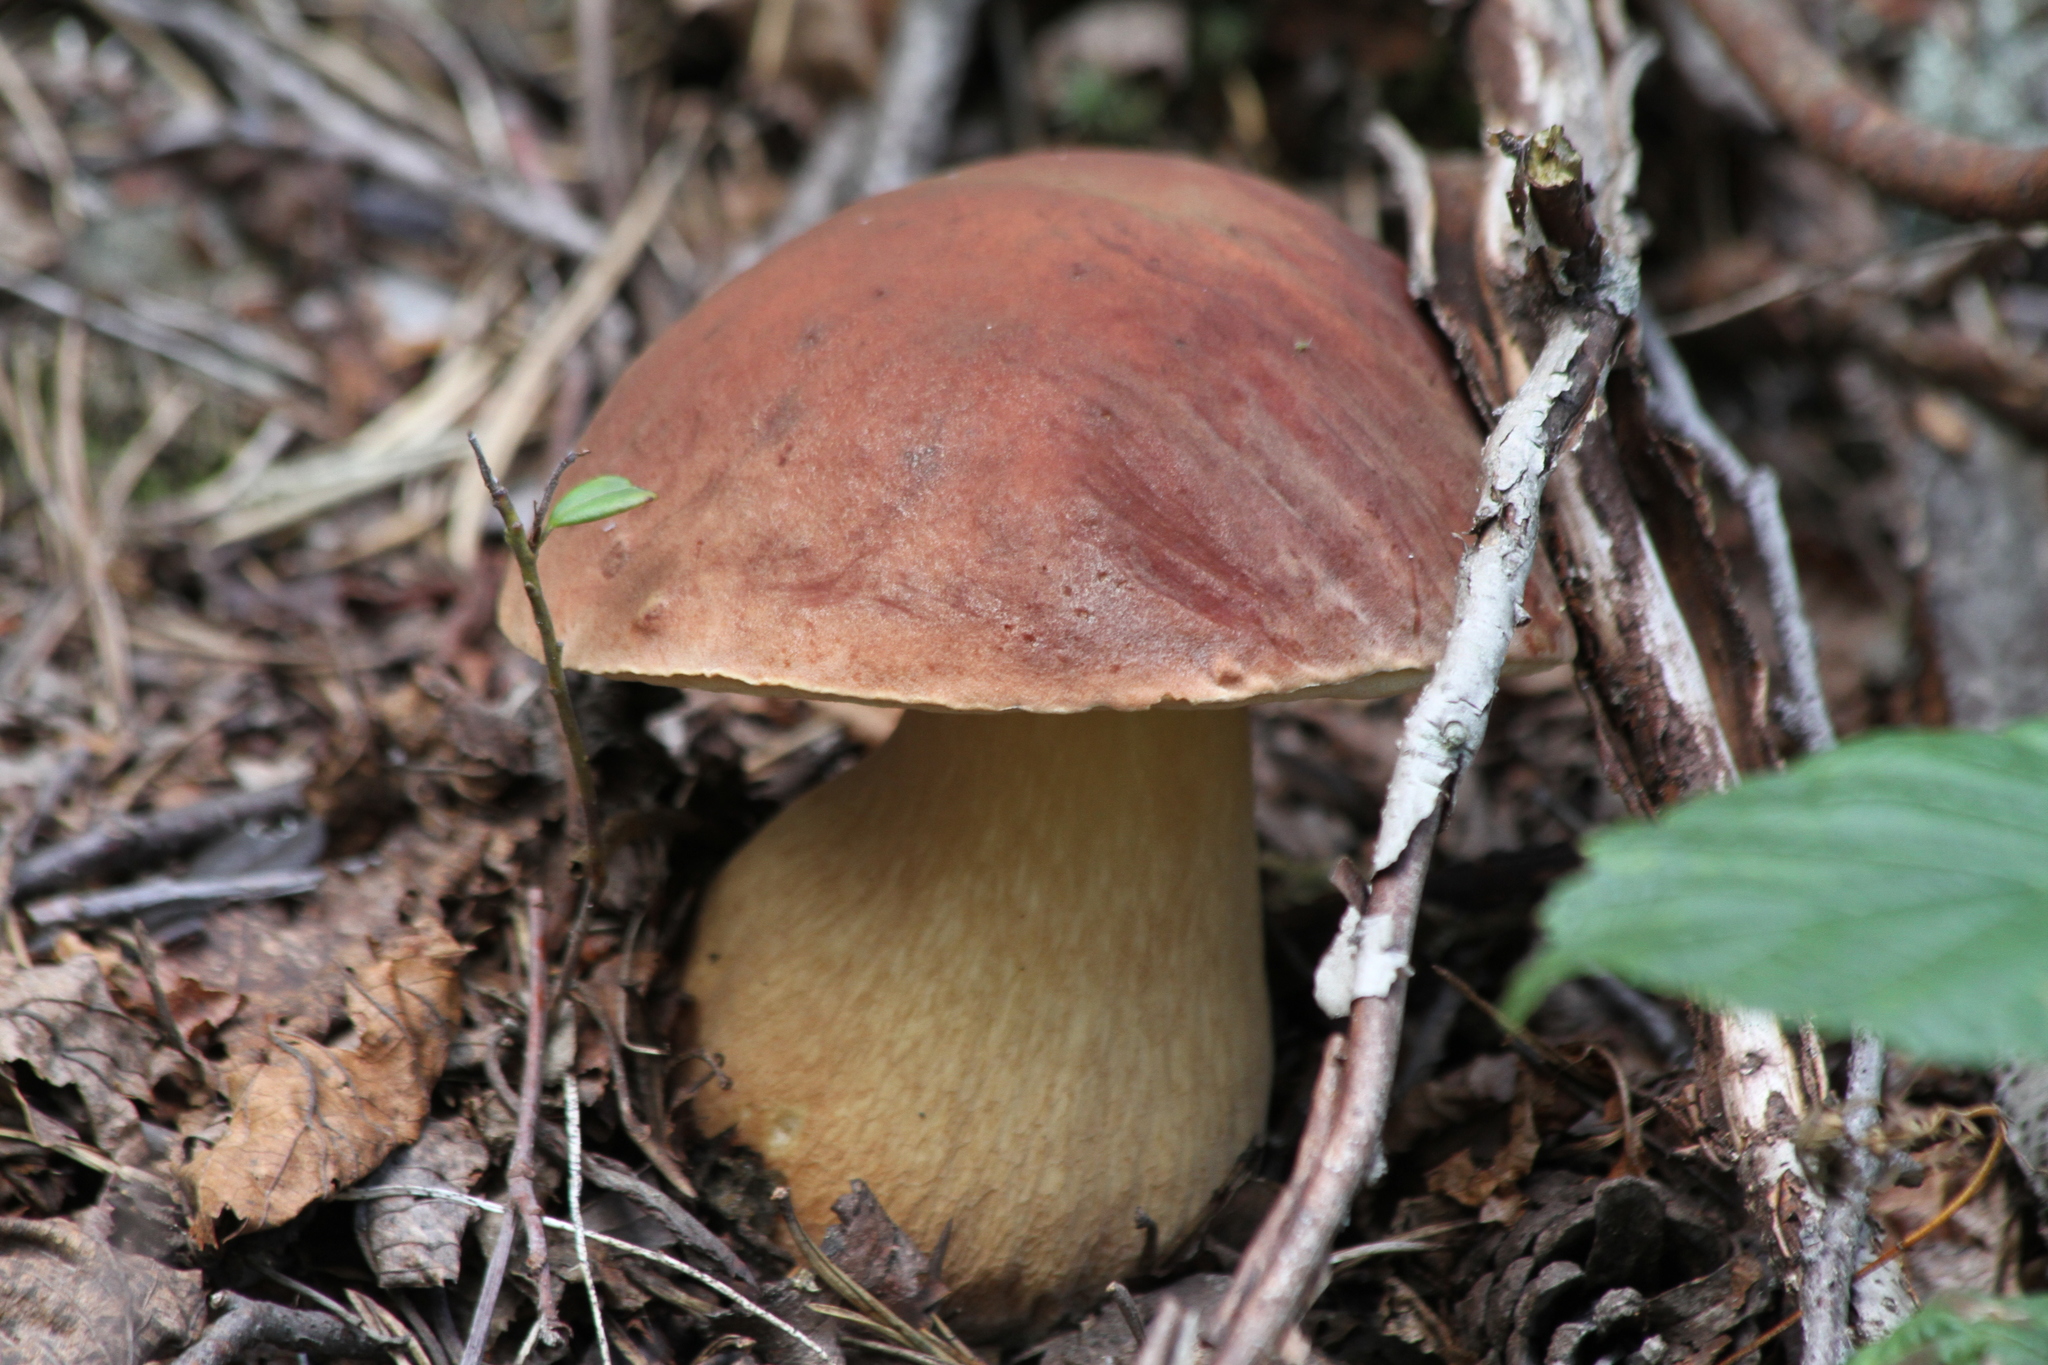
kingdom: Fungi
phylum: Basidiomycota
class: Agaricomycetes
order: Boletales
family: Boletaceae
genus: Boletus
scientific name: Boletus pinophilus
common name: Pine bolete
